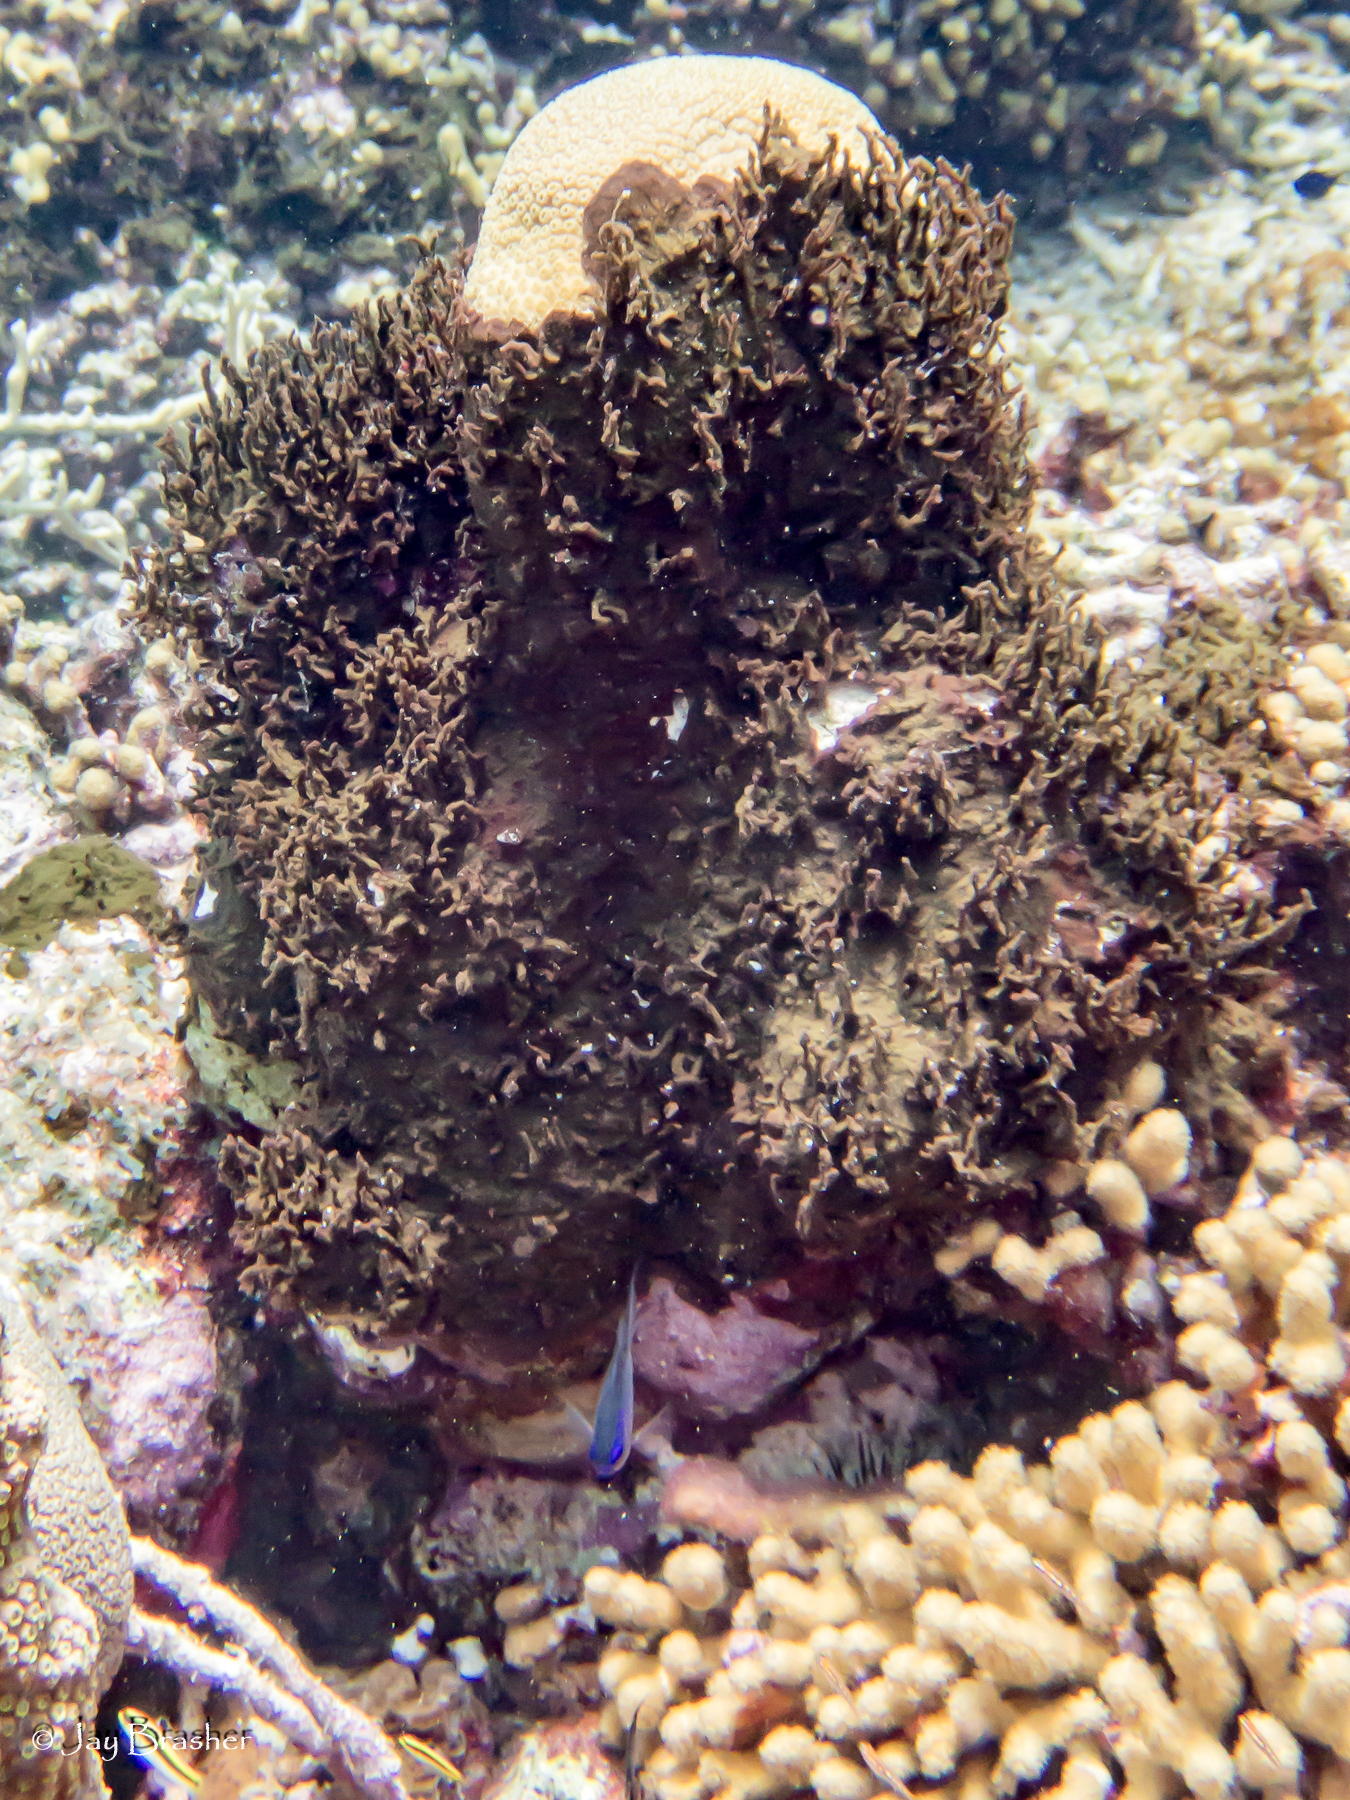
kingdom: Animalia
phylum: Porifera
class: Demospongiae
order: Bubarida
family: Dictyonellidae
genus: Dictyonella
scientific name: Dictyonella funicularis
